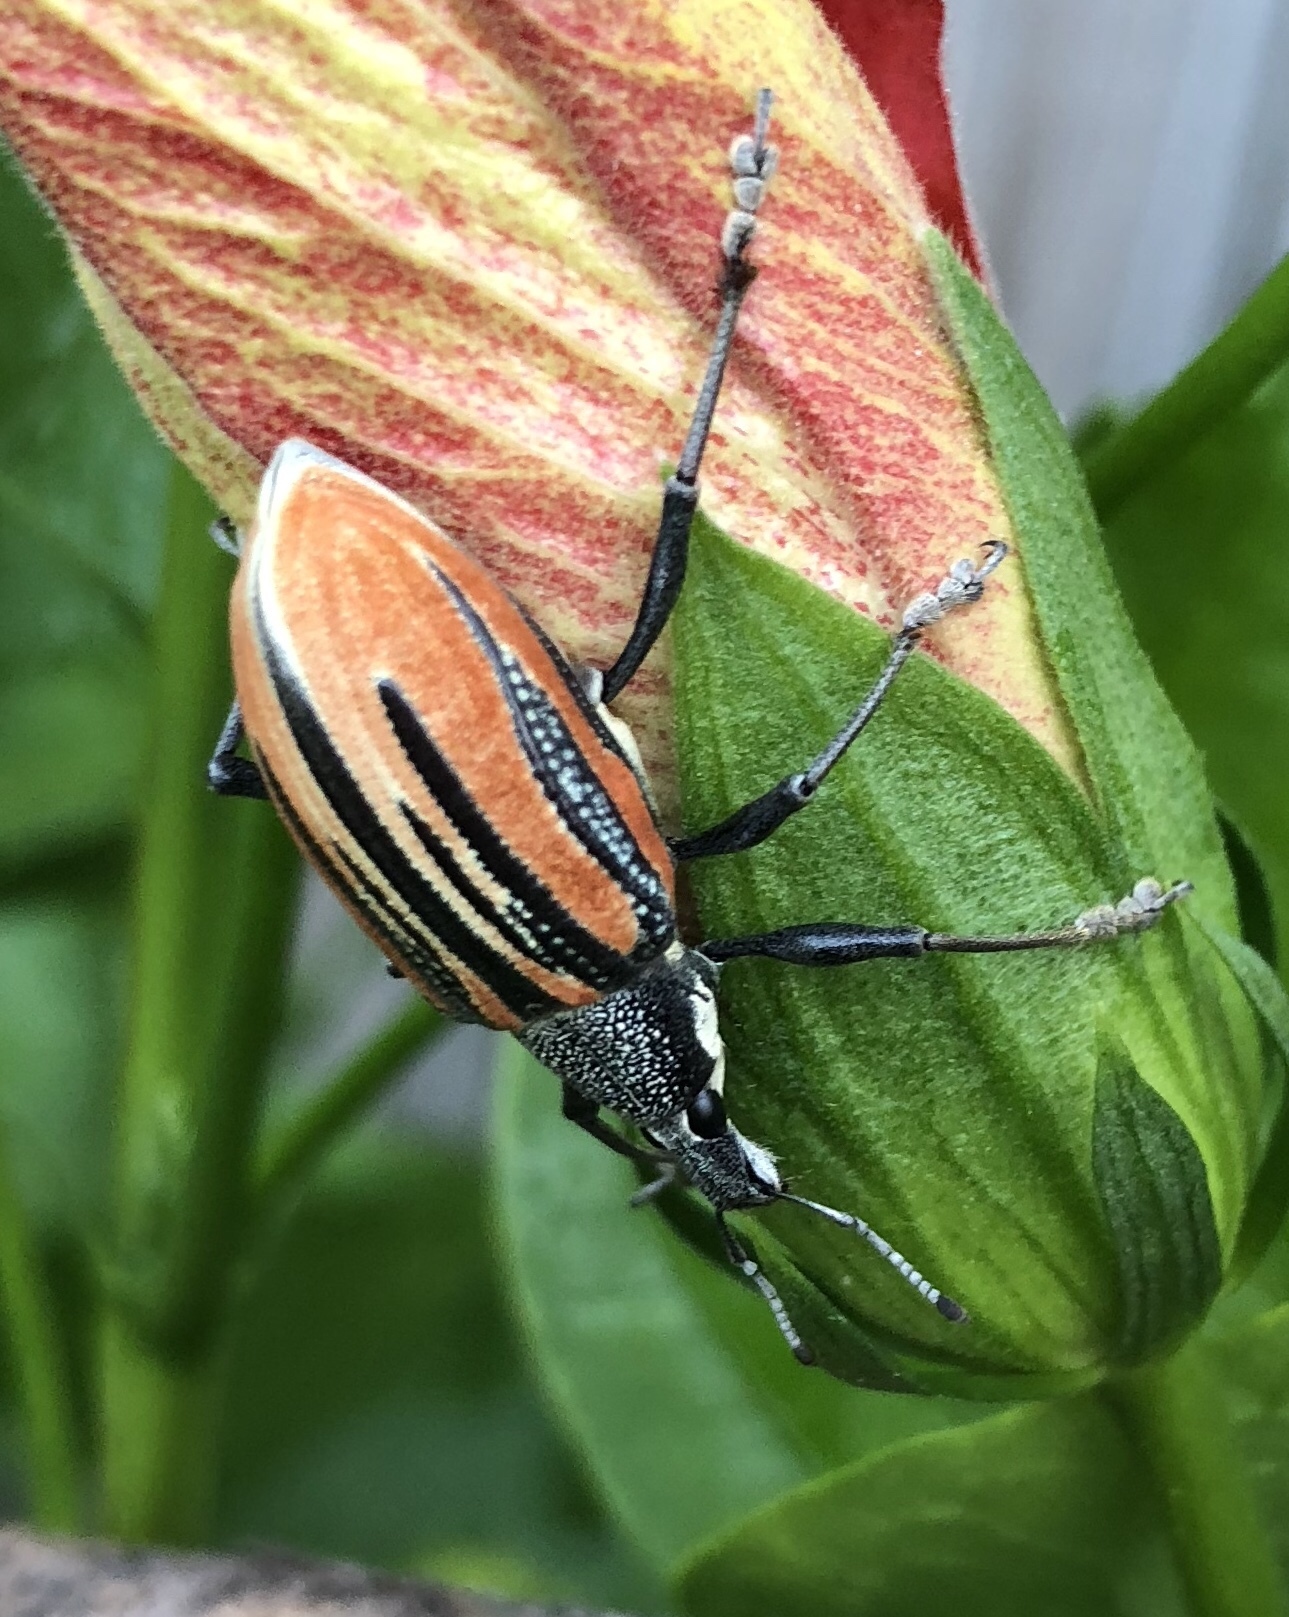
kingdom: Animalia
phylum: Arthropoda
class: Insecta
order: Coleoptera
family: Curculionidae
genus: Diaprepes
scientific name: Diaprepes abbreviatus
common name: Root weevil
